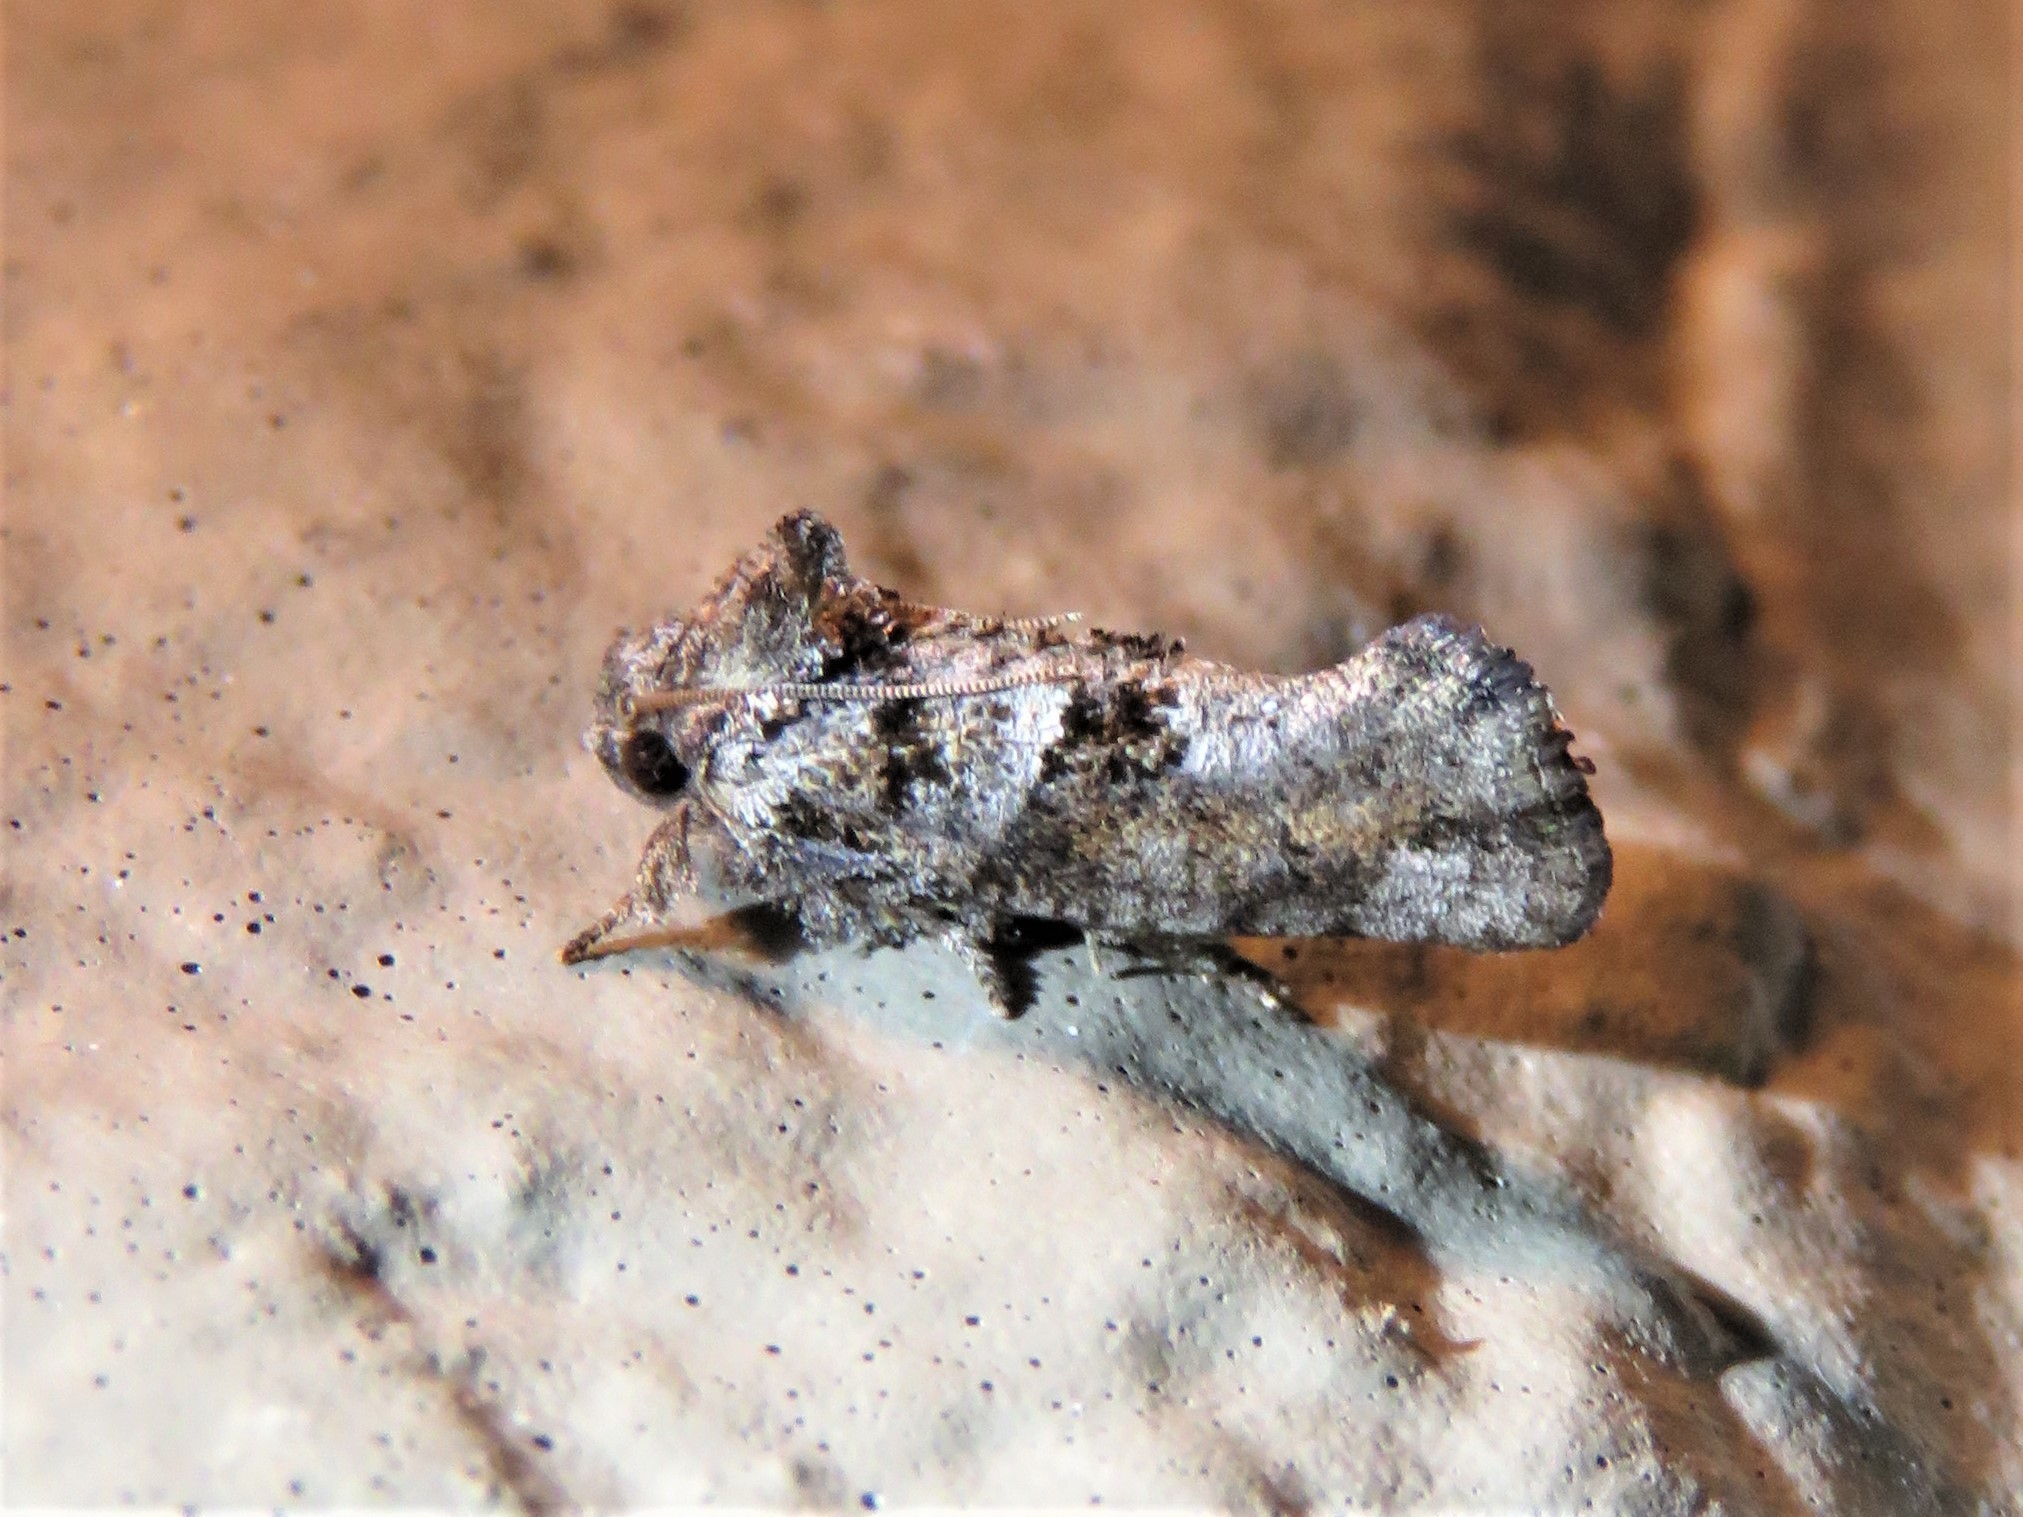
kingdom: Animalia
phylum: Arthropoda
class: Insecta
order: Lepidoptera
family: Tineidae
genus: Acrolophus
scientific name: Acrolophus piger
